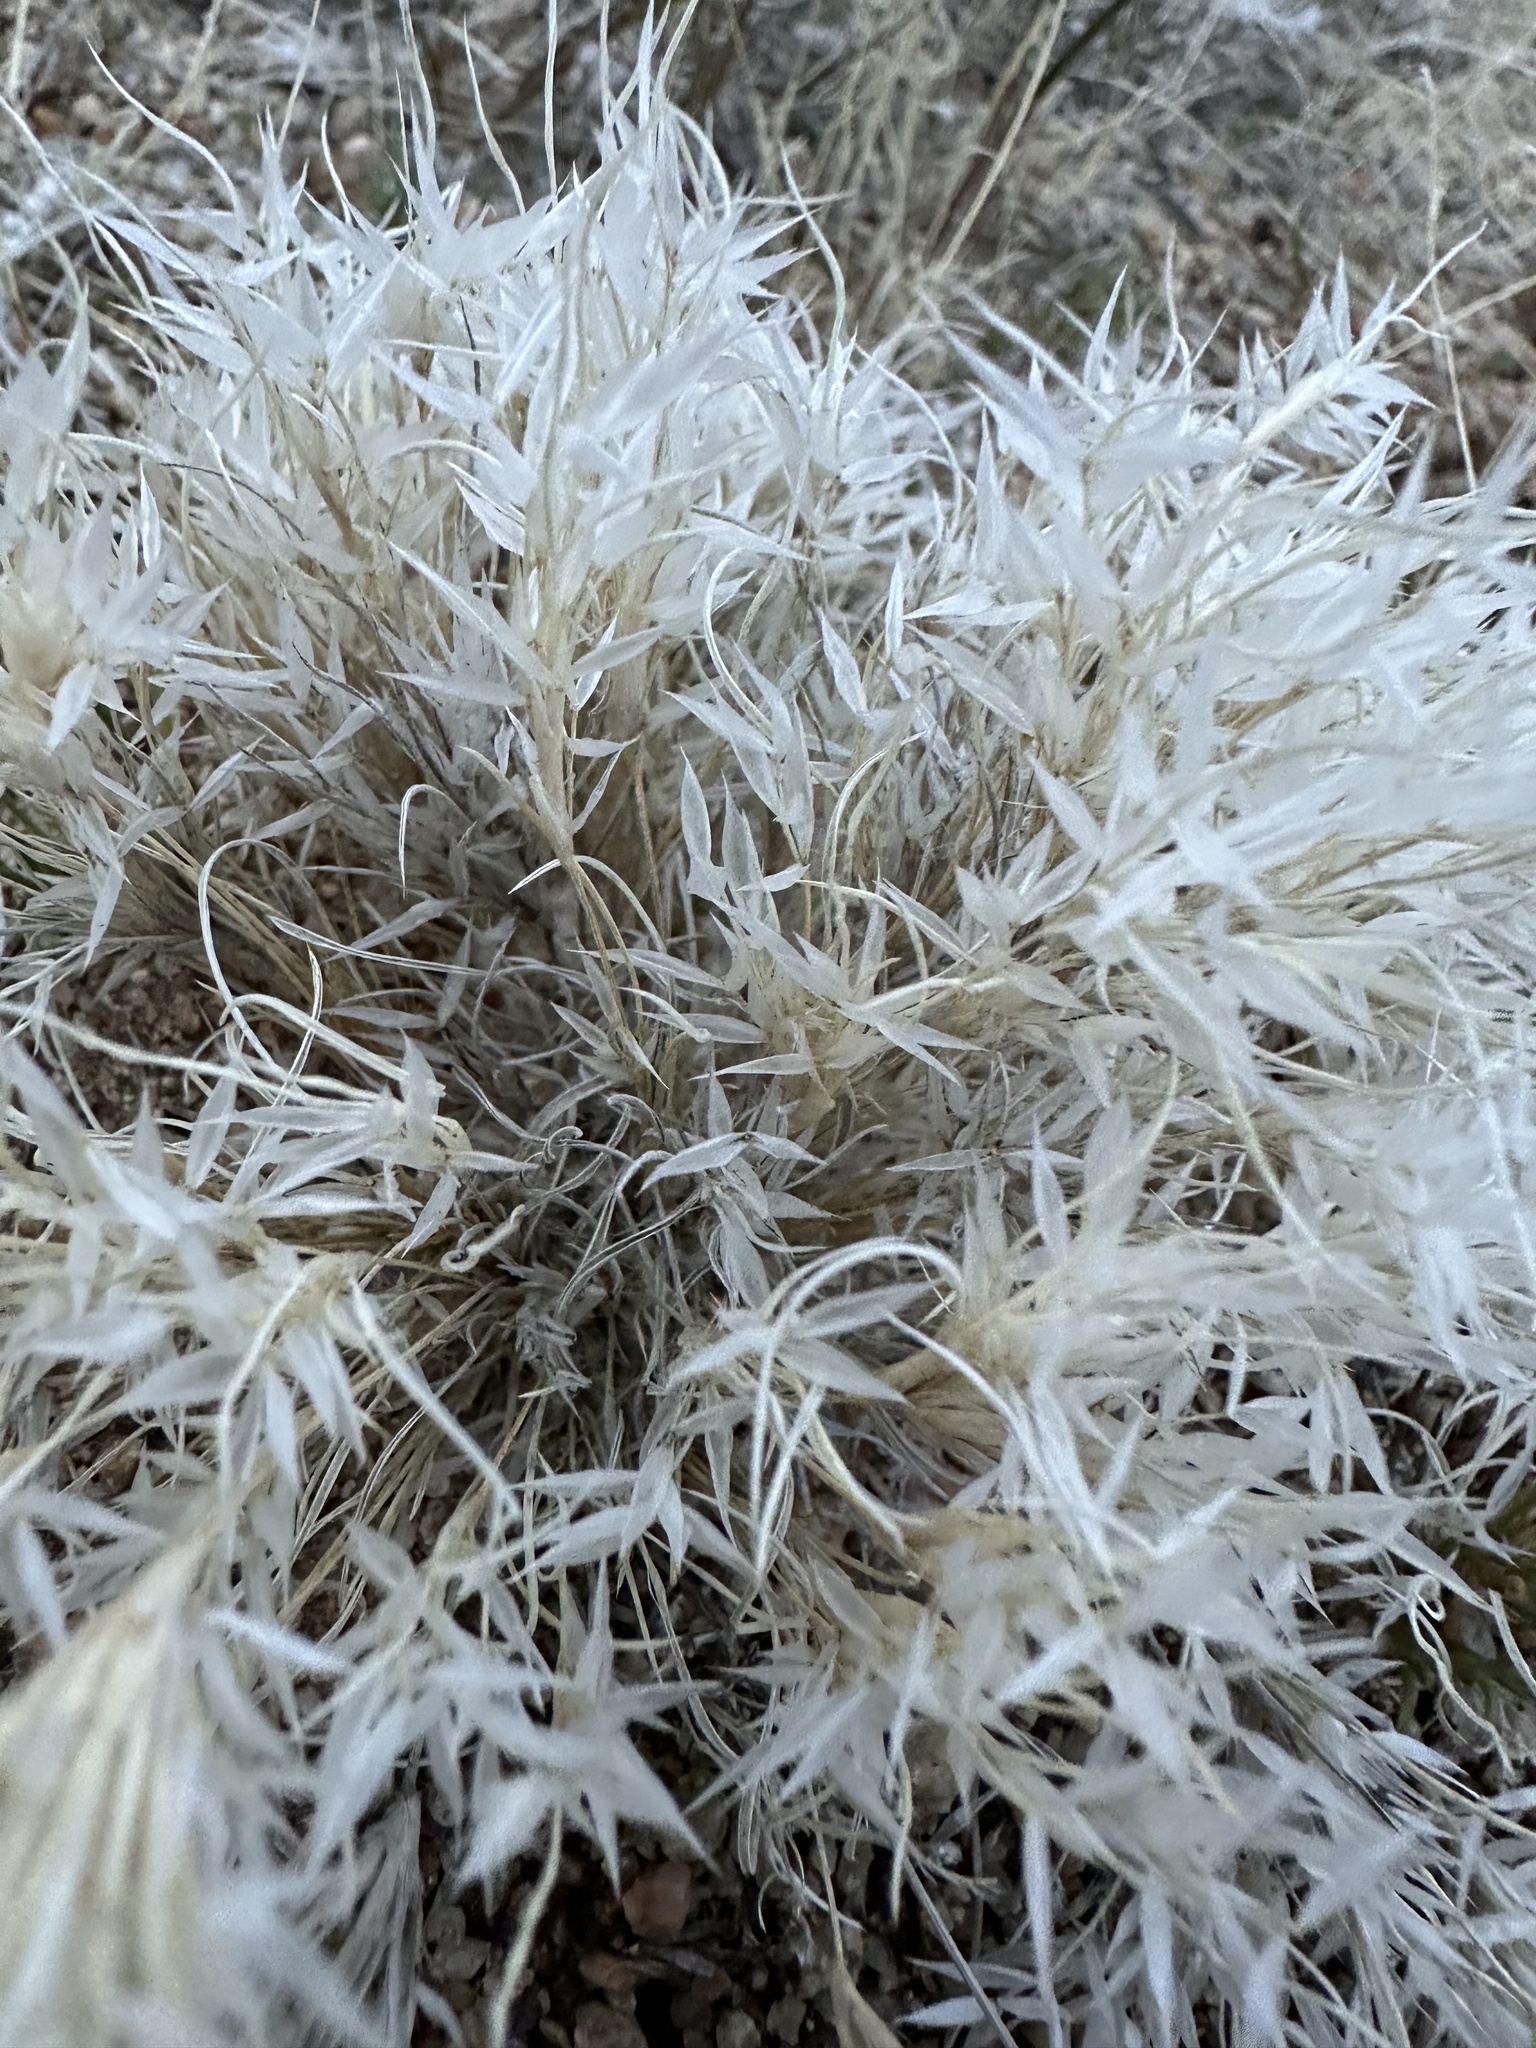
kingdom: Plantae
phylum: Tracheophyta
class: Liliopsida
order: Poales
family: Poaceae
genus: Dasyochloa
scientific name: Dasyochloa pulchella
